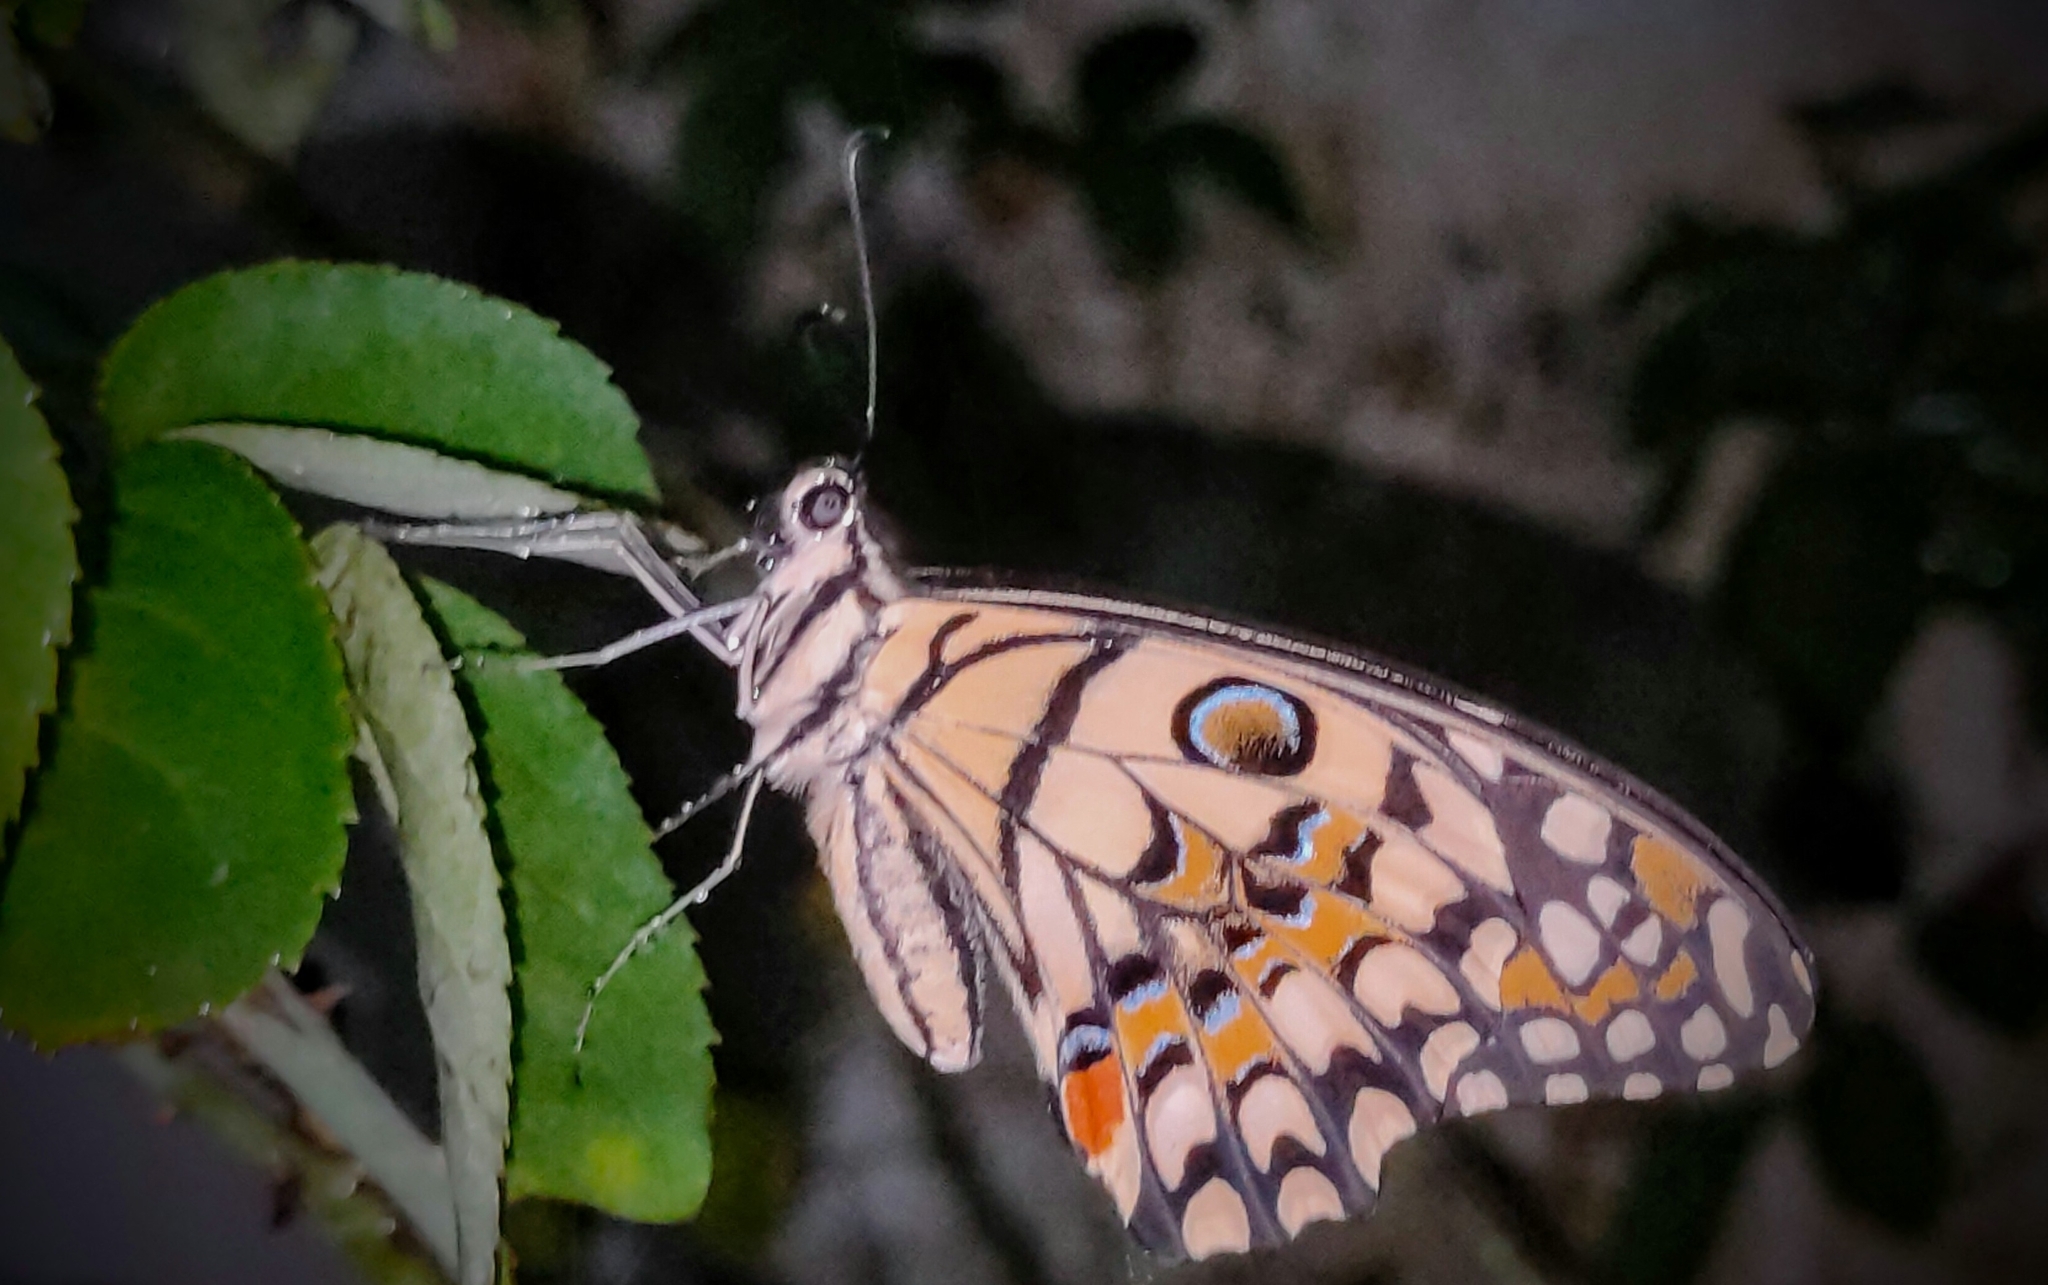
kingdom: Animalia
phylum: Arthropoda
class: Insecta
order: Lepidoptera
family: Papilionidae
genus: Papilio
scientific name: Papilio demoleus
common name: Lime butterfly
